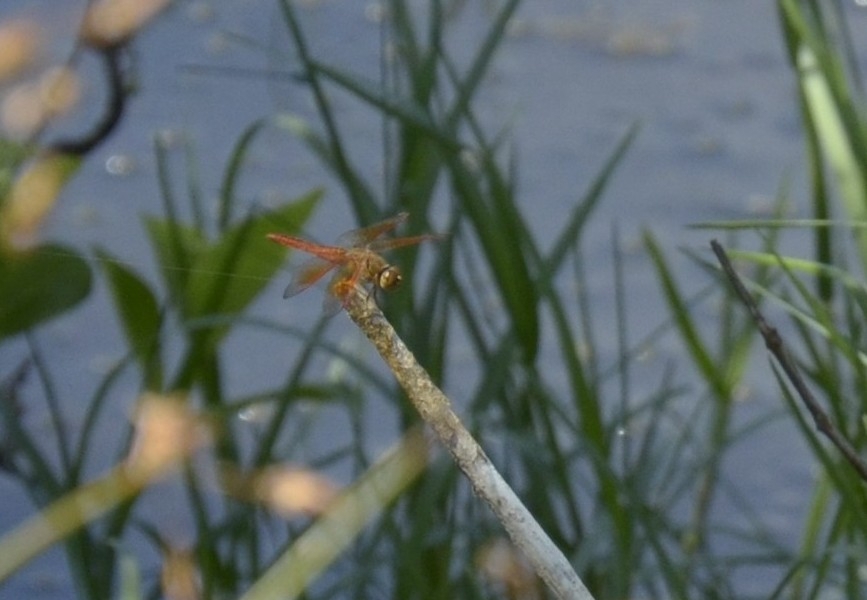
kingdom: Animalia
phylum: Arthropoda
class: Insecta
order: Odonata
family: Libellulidae
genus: Brachythemis
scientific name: Brachythemis contaminata
